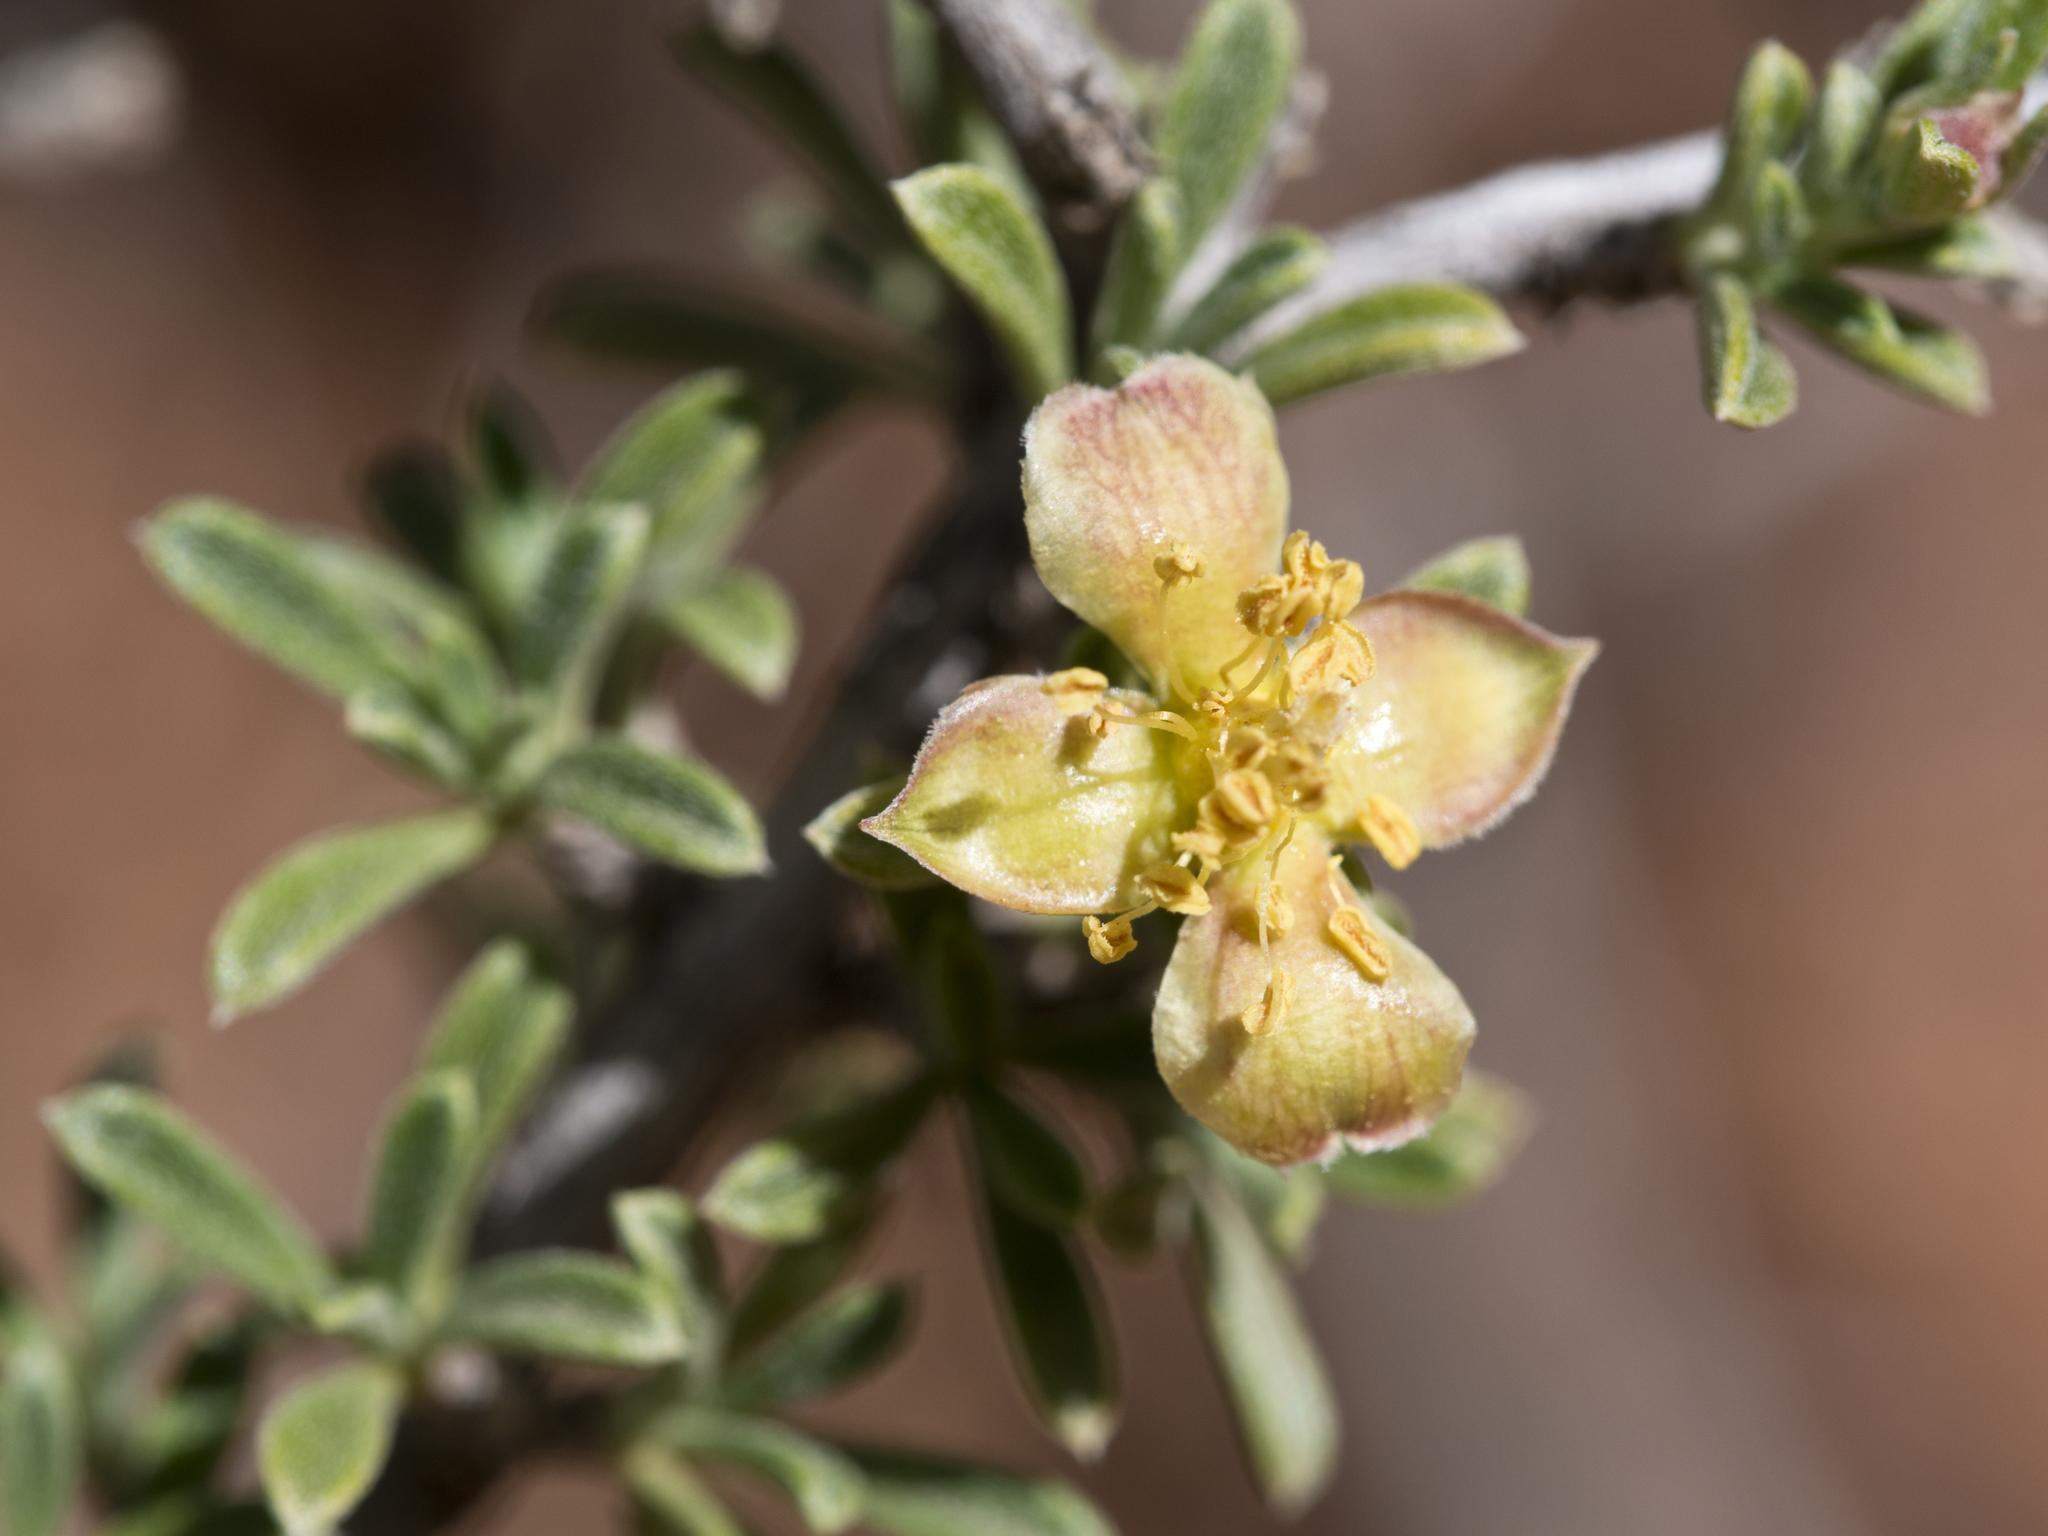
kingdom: Plantae
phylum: Tracheophyta
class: Magnoliopsida
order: Rosales
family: Rosaceae
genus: Coleogyne
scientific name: Coleogyne ramosissima
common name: Blackbrush
